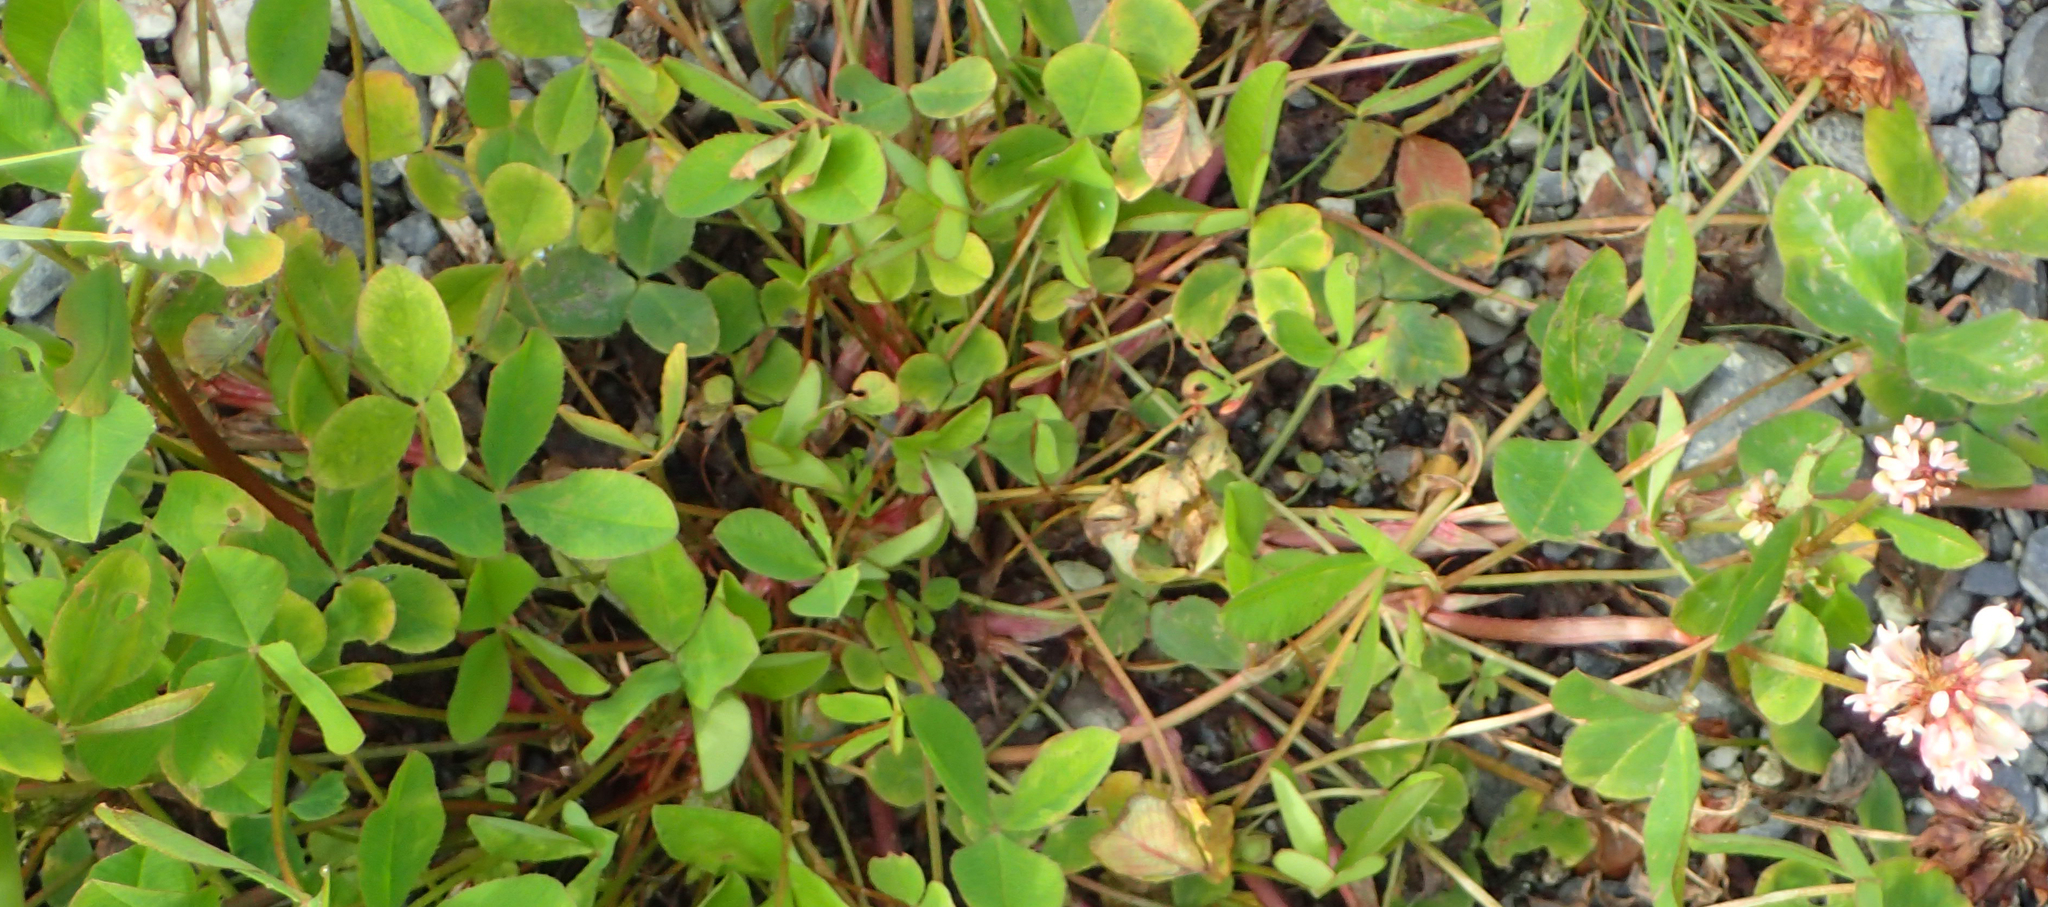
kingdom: Plantae
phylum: Tracheophyta
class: Magnoliopsida
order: Fabales
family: Fabaceae
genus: Trifolium
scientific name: Trifolium repens
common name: White clover
